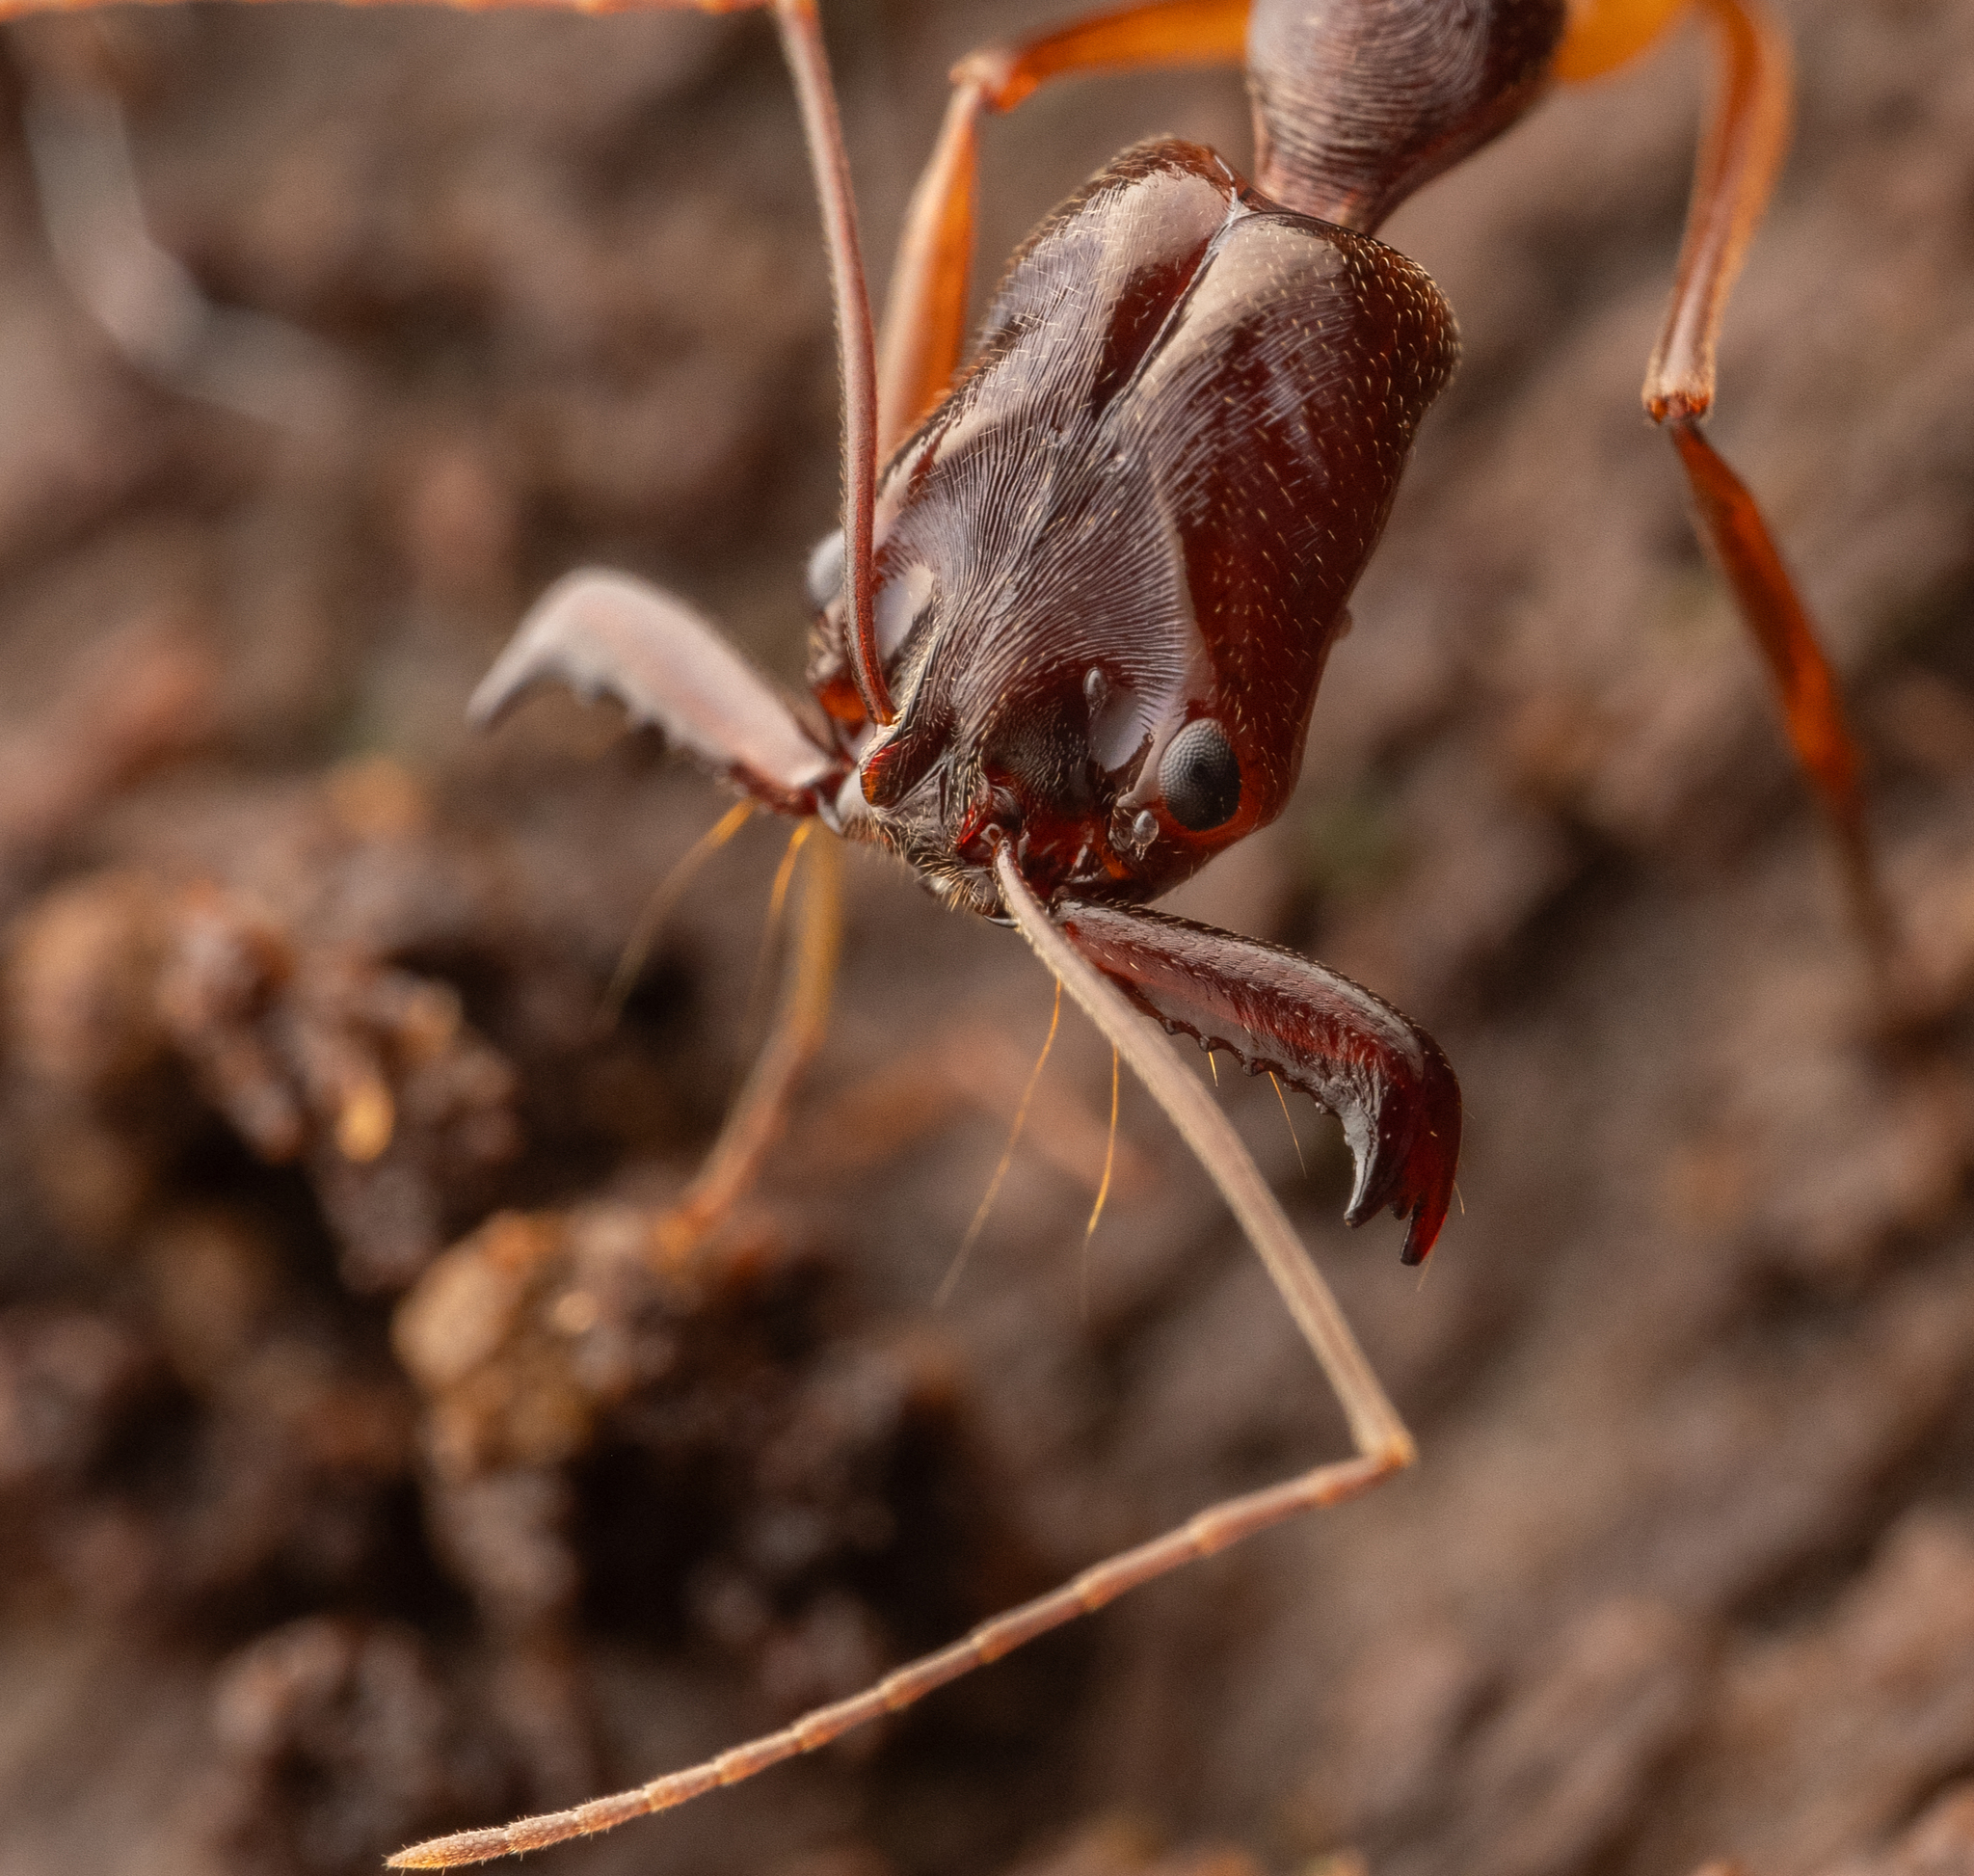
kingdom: Animalia
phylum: Arthropoda
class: Insecta
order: Hymenoptera
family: Formicidae
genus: Odontomachus
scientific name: Odontomachus papuanus
